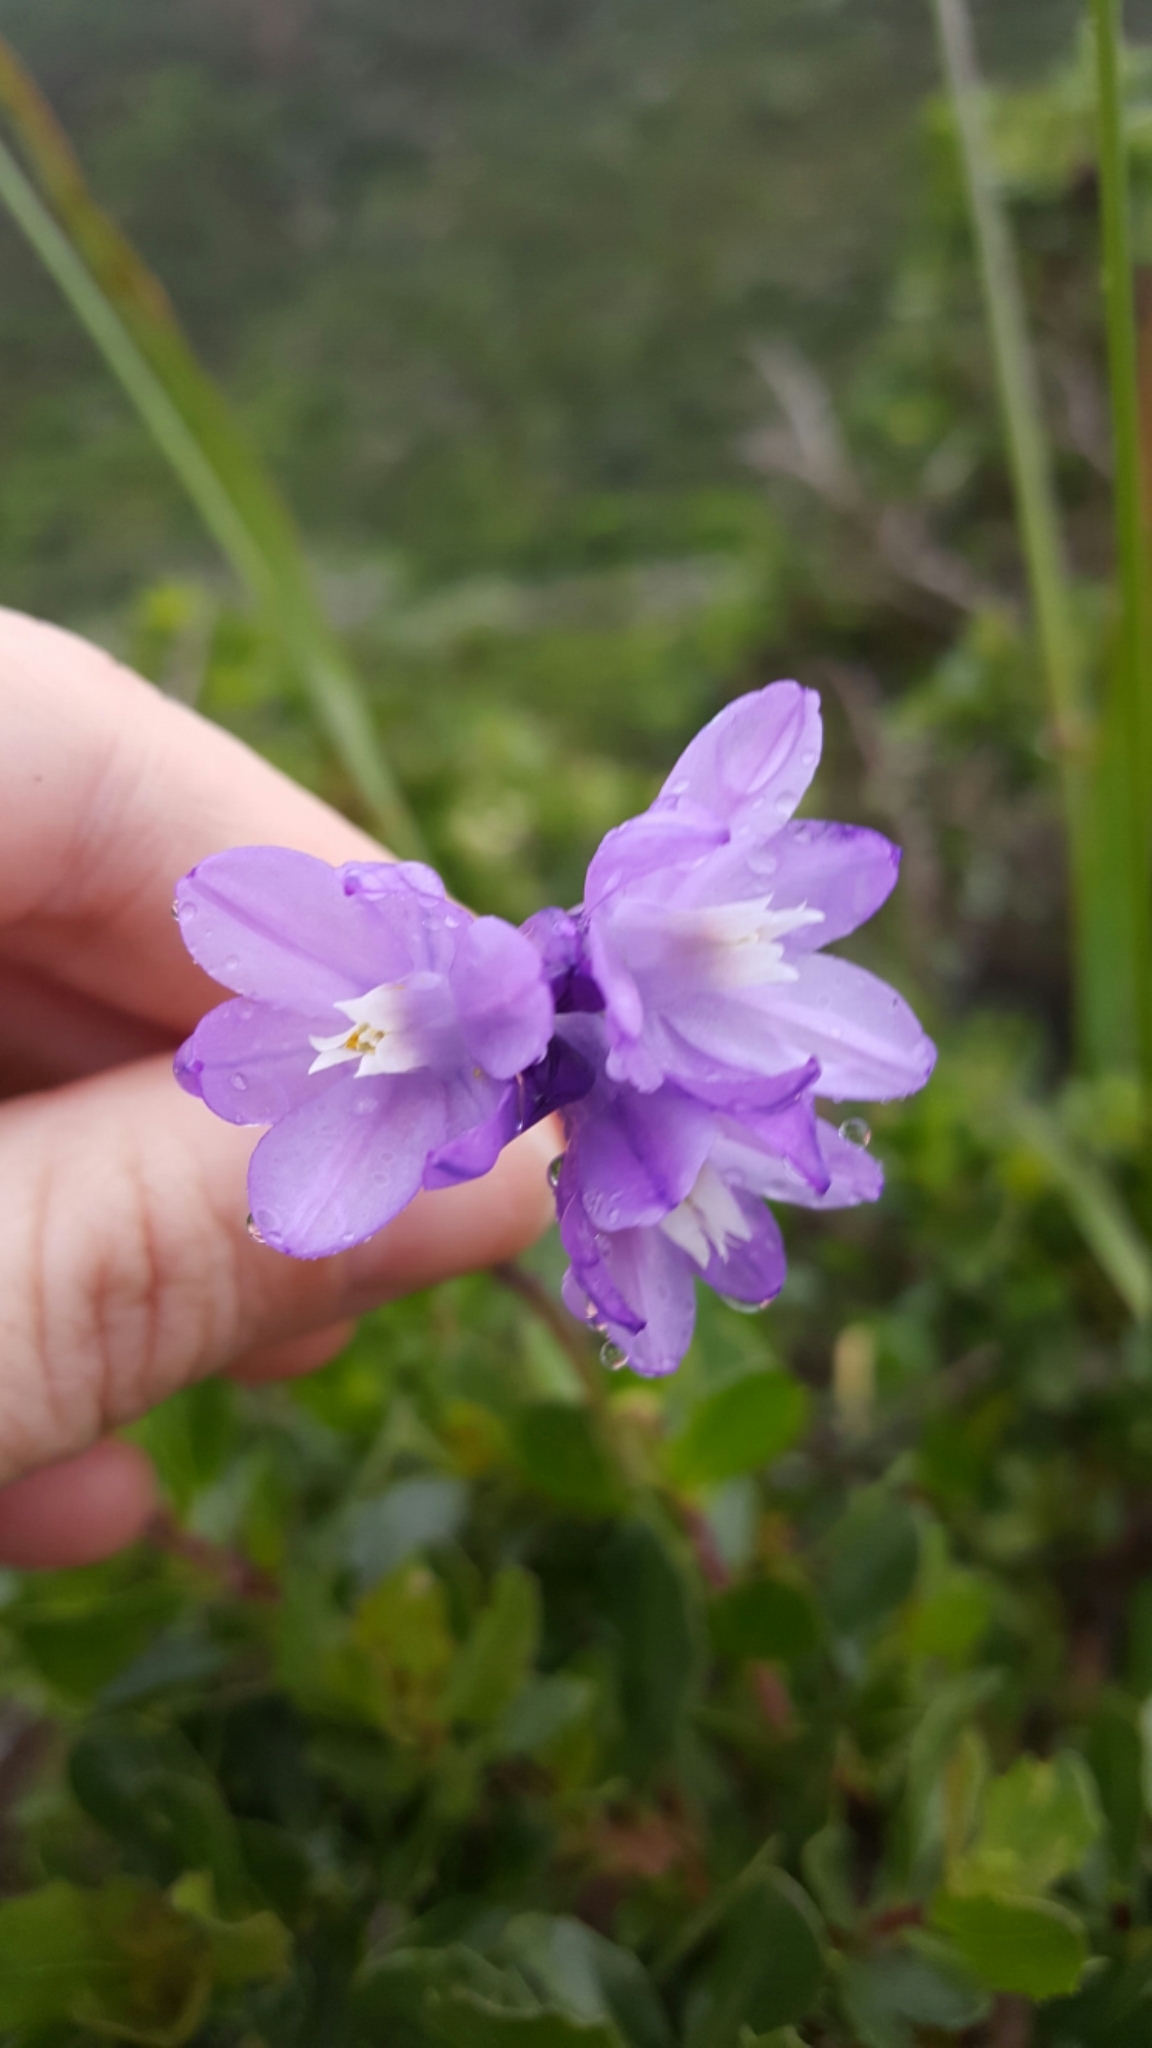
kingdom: Plantae
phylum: Tracheophyta
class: Liliopsida
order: Asparagales
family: Asparagaceae
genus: Dipterostemon
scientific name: Dipterostemon capitatus
